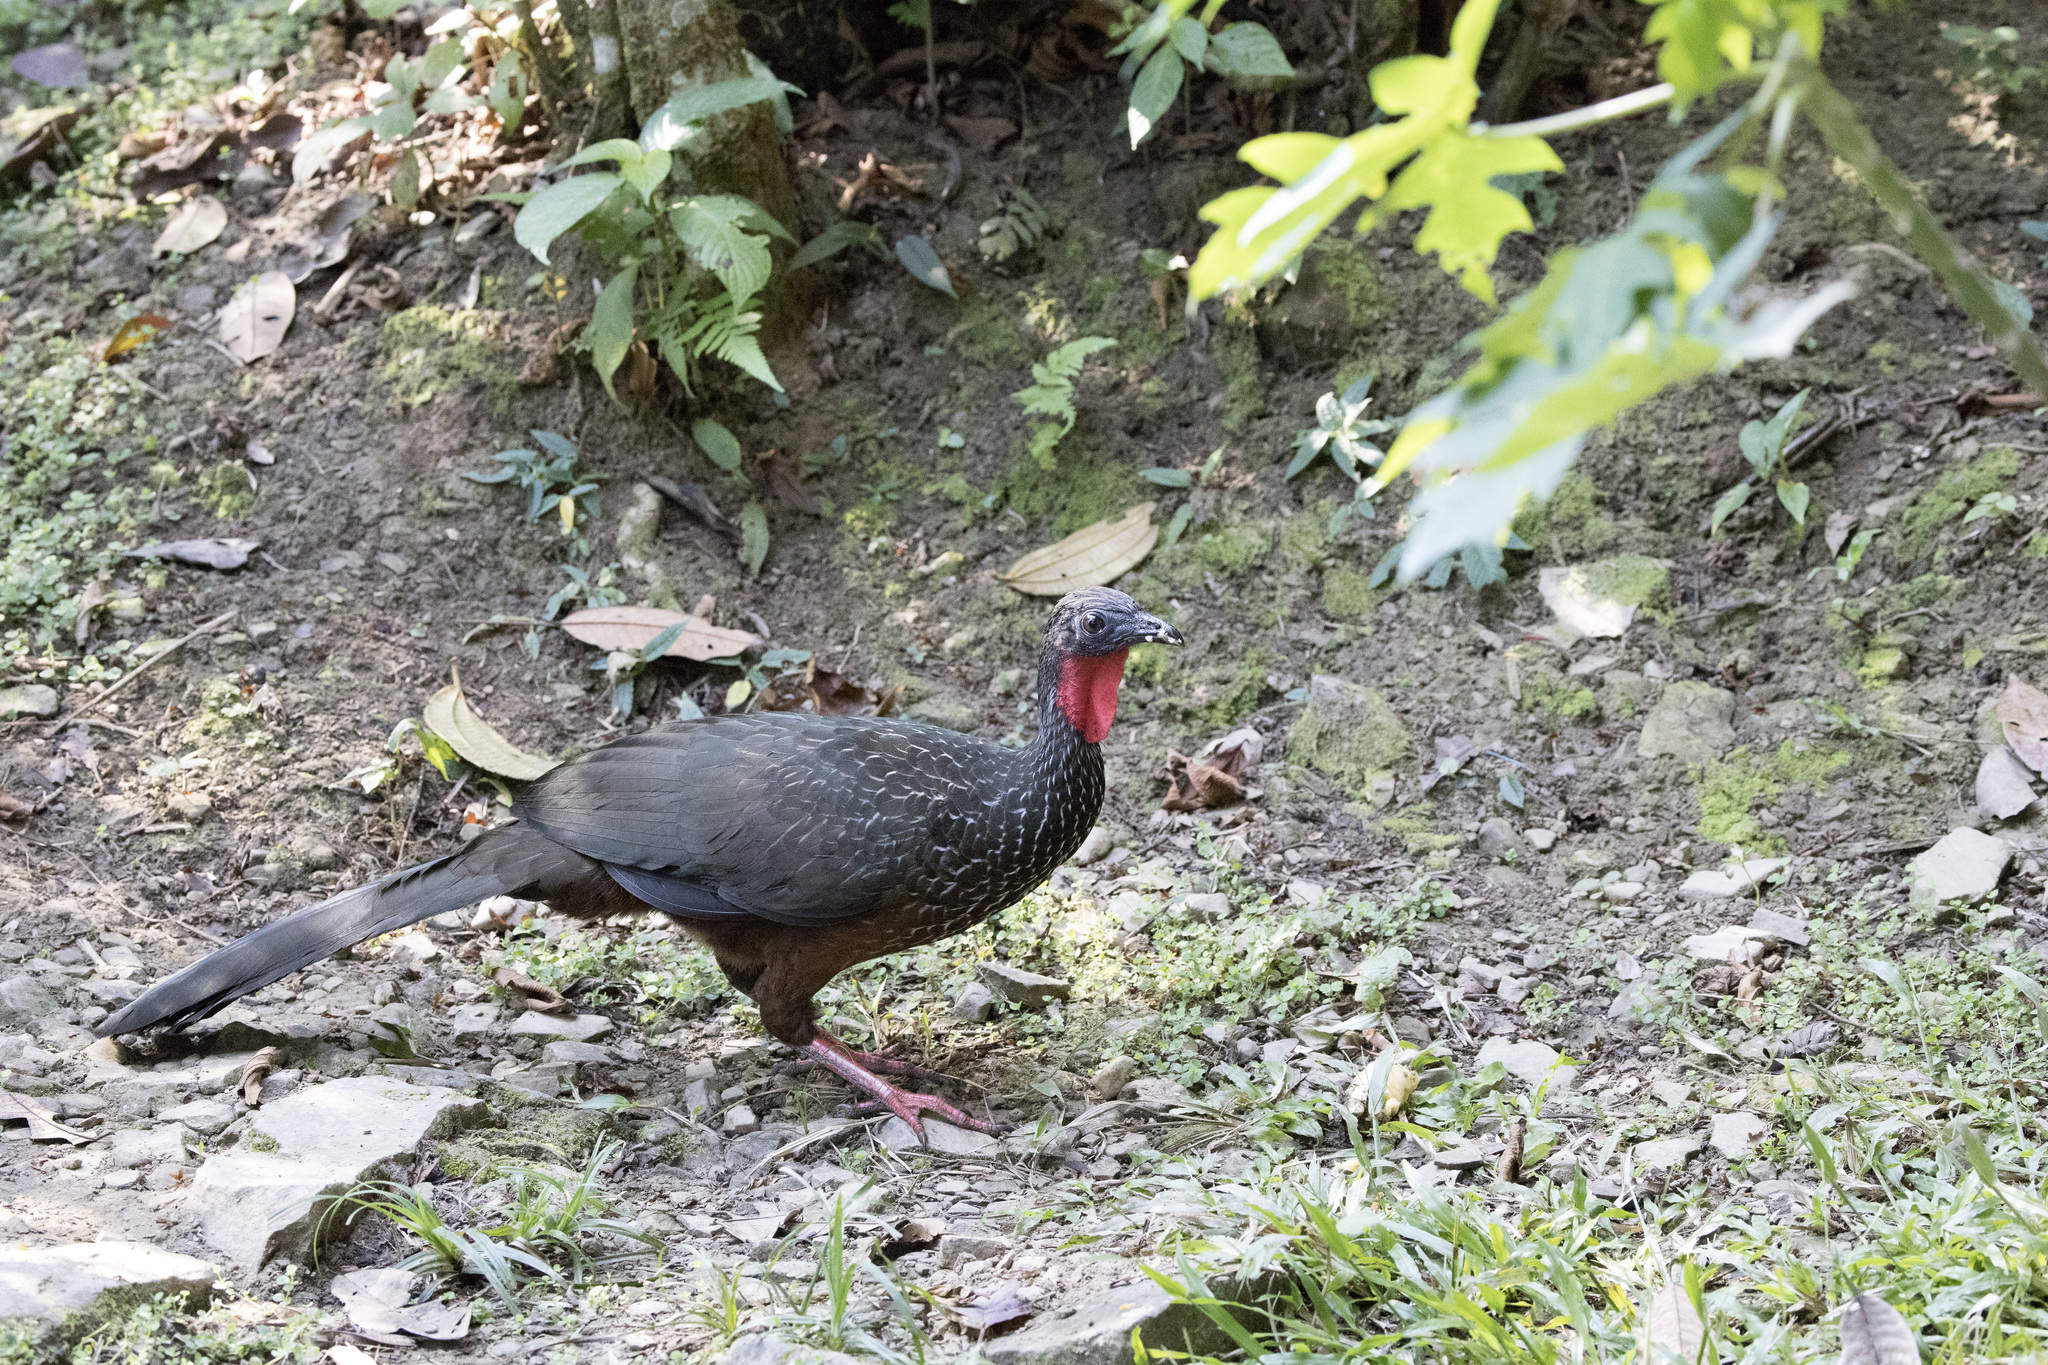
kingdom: Animalia
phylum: Chordata
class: Aves
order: Galliformes
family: Cracidae
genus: Penelope
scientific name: Penelope jacquacu
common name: Spix's guan
